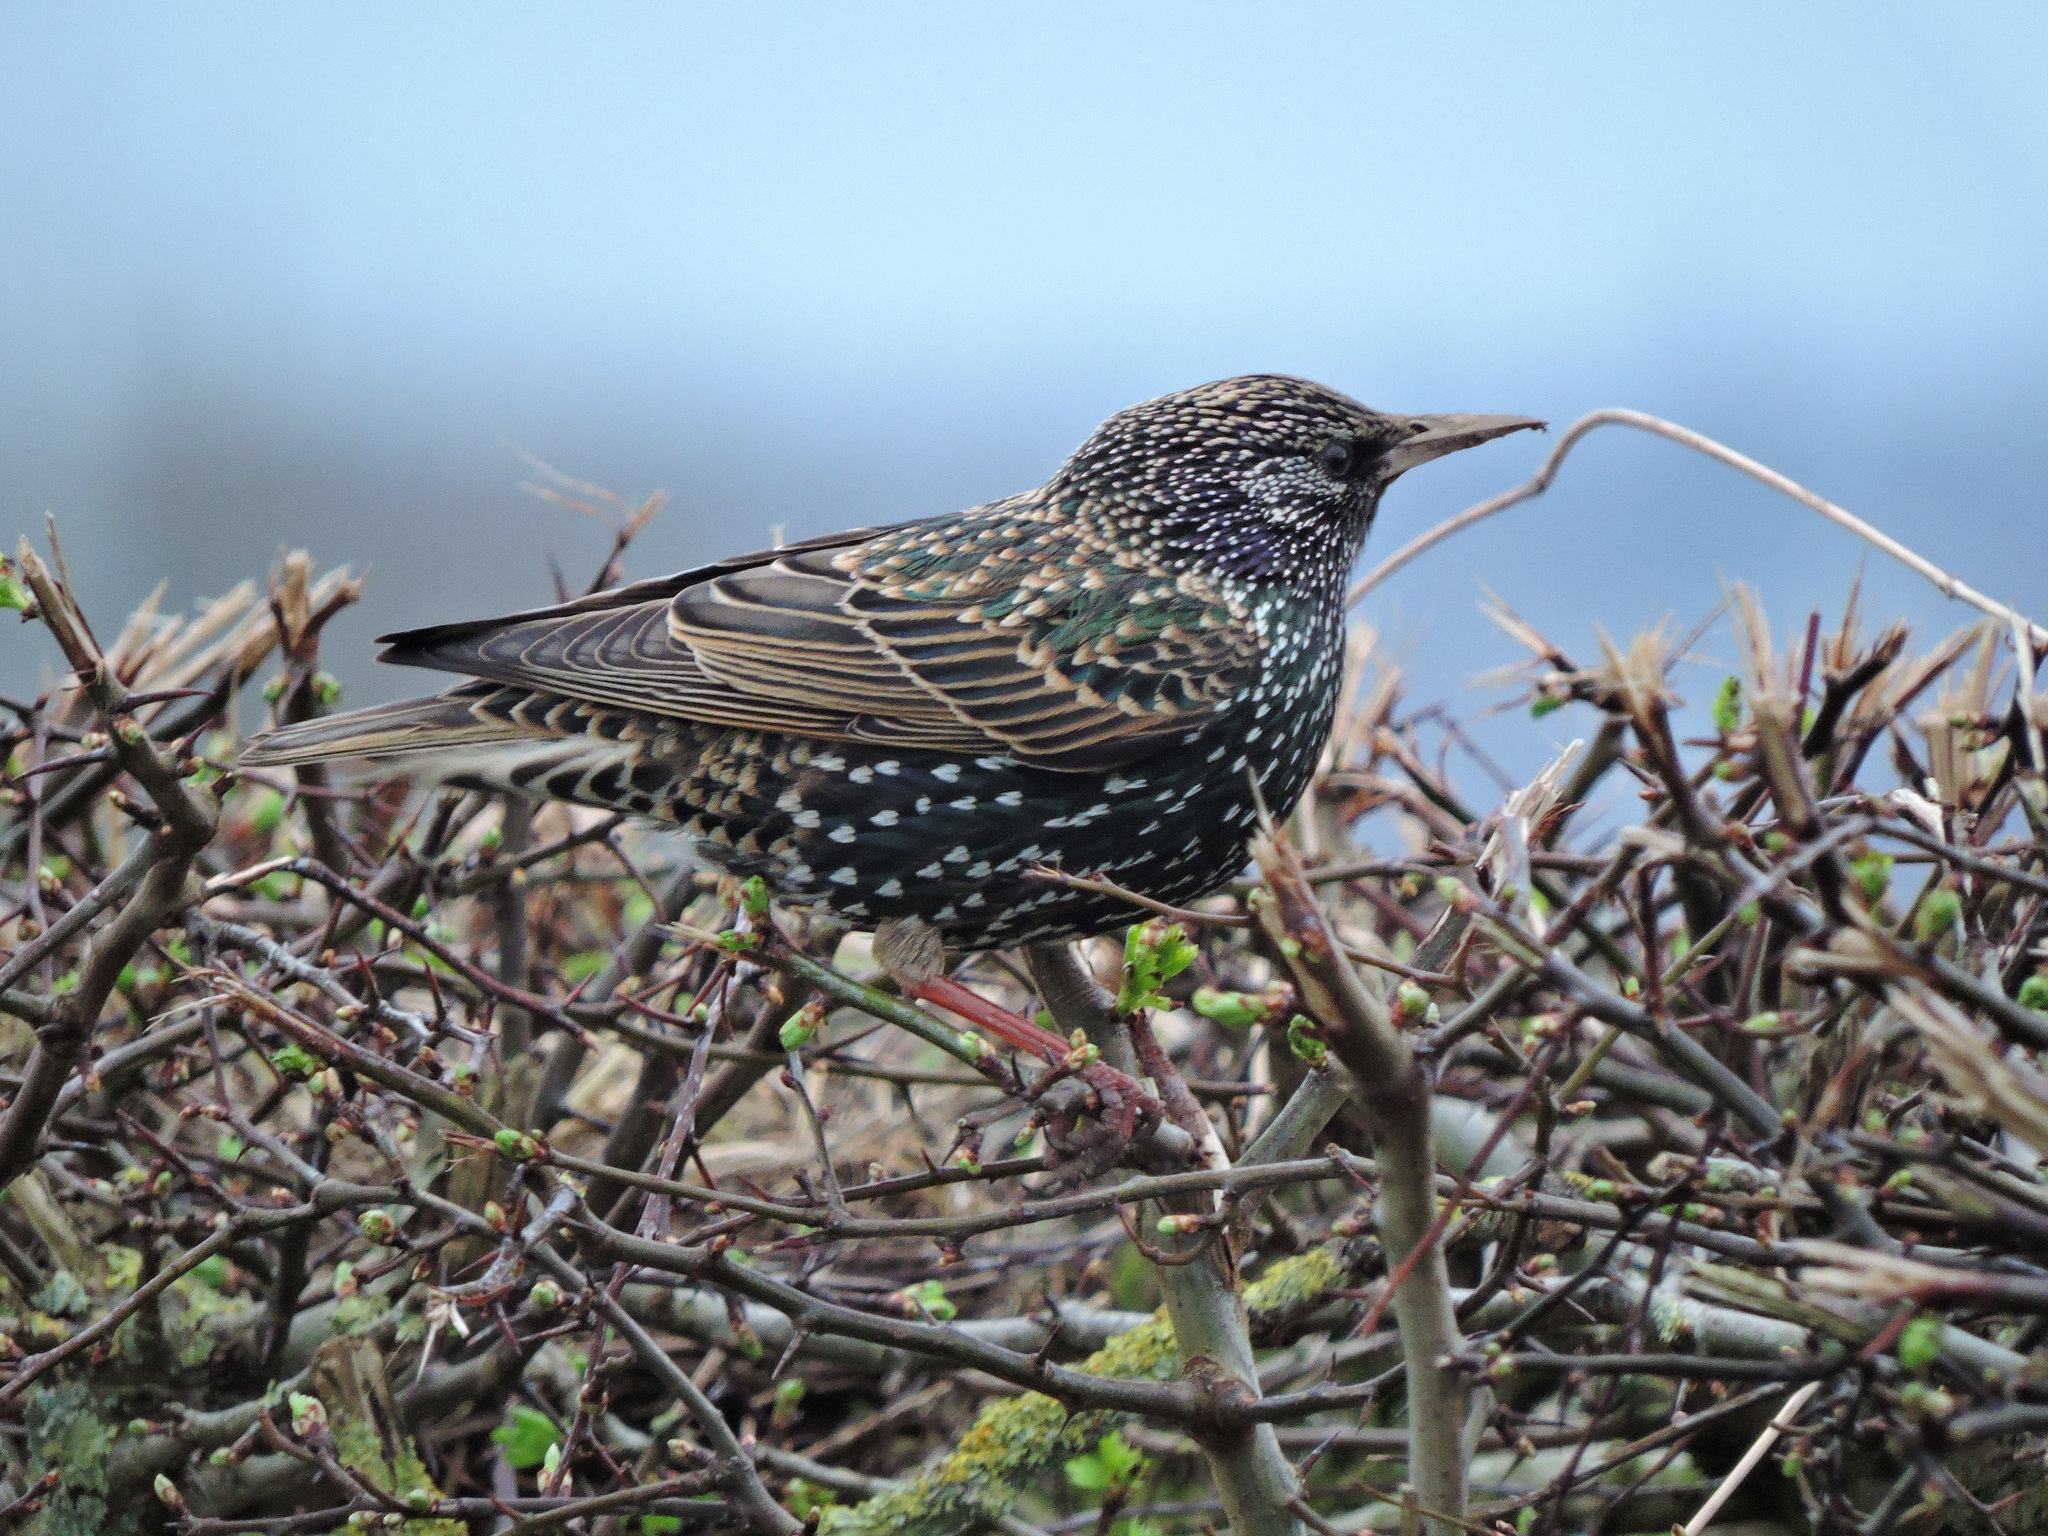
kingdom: Animalia
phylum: Chordata
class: Aves
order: Passeriformes
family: Sturnidae
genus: Sturnus
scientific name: Sturnus vulgaris
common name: Common starling
